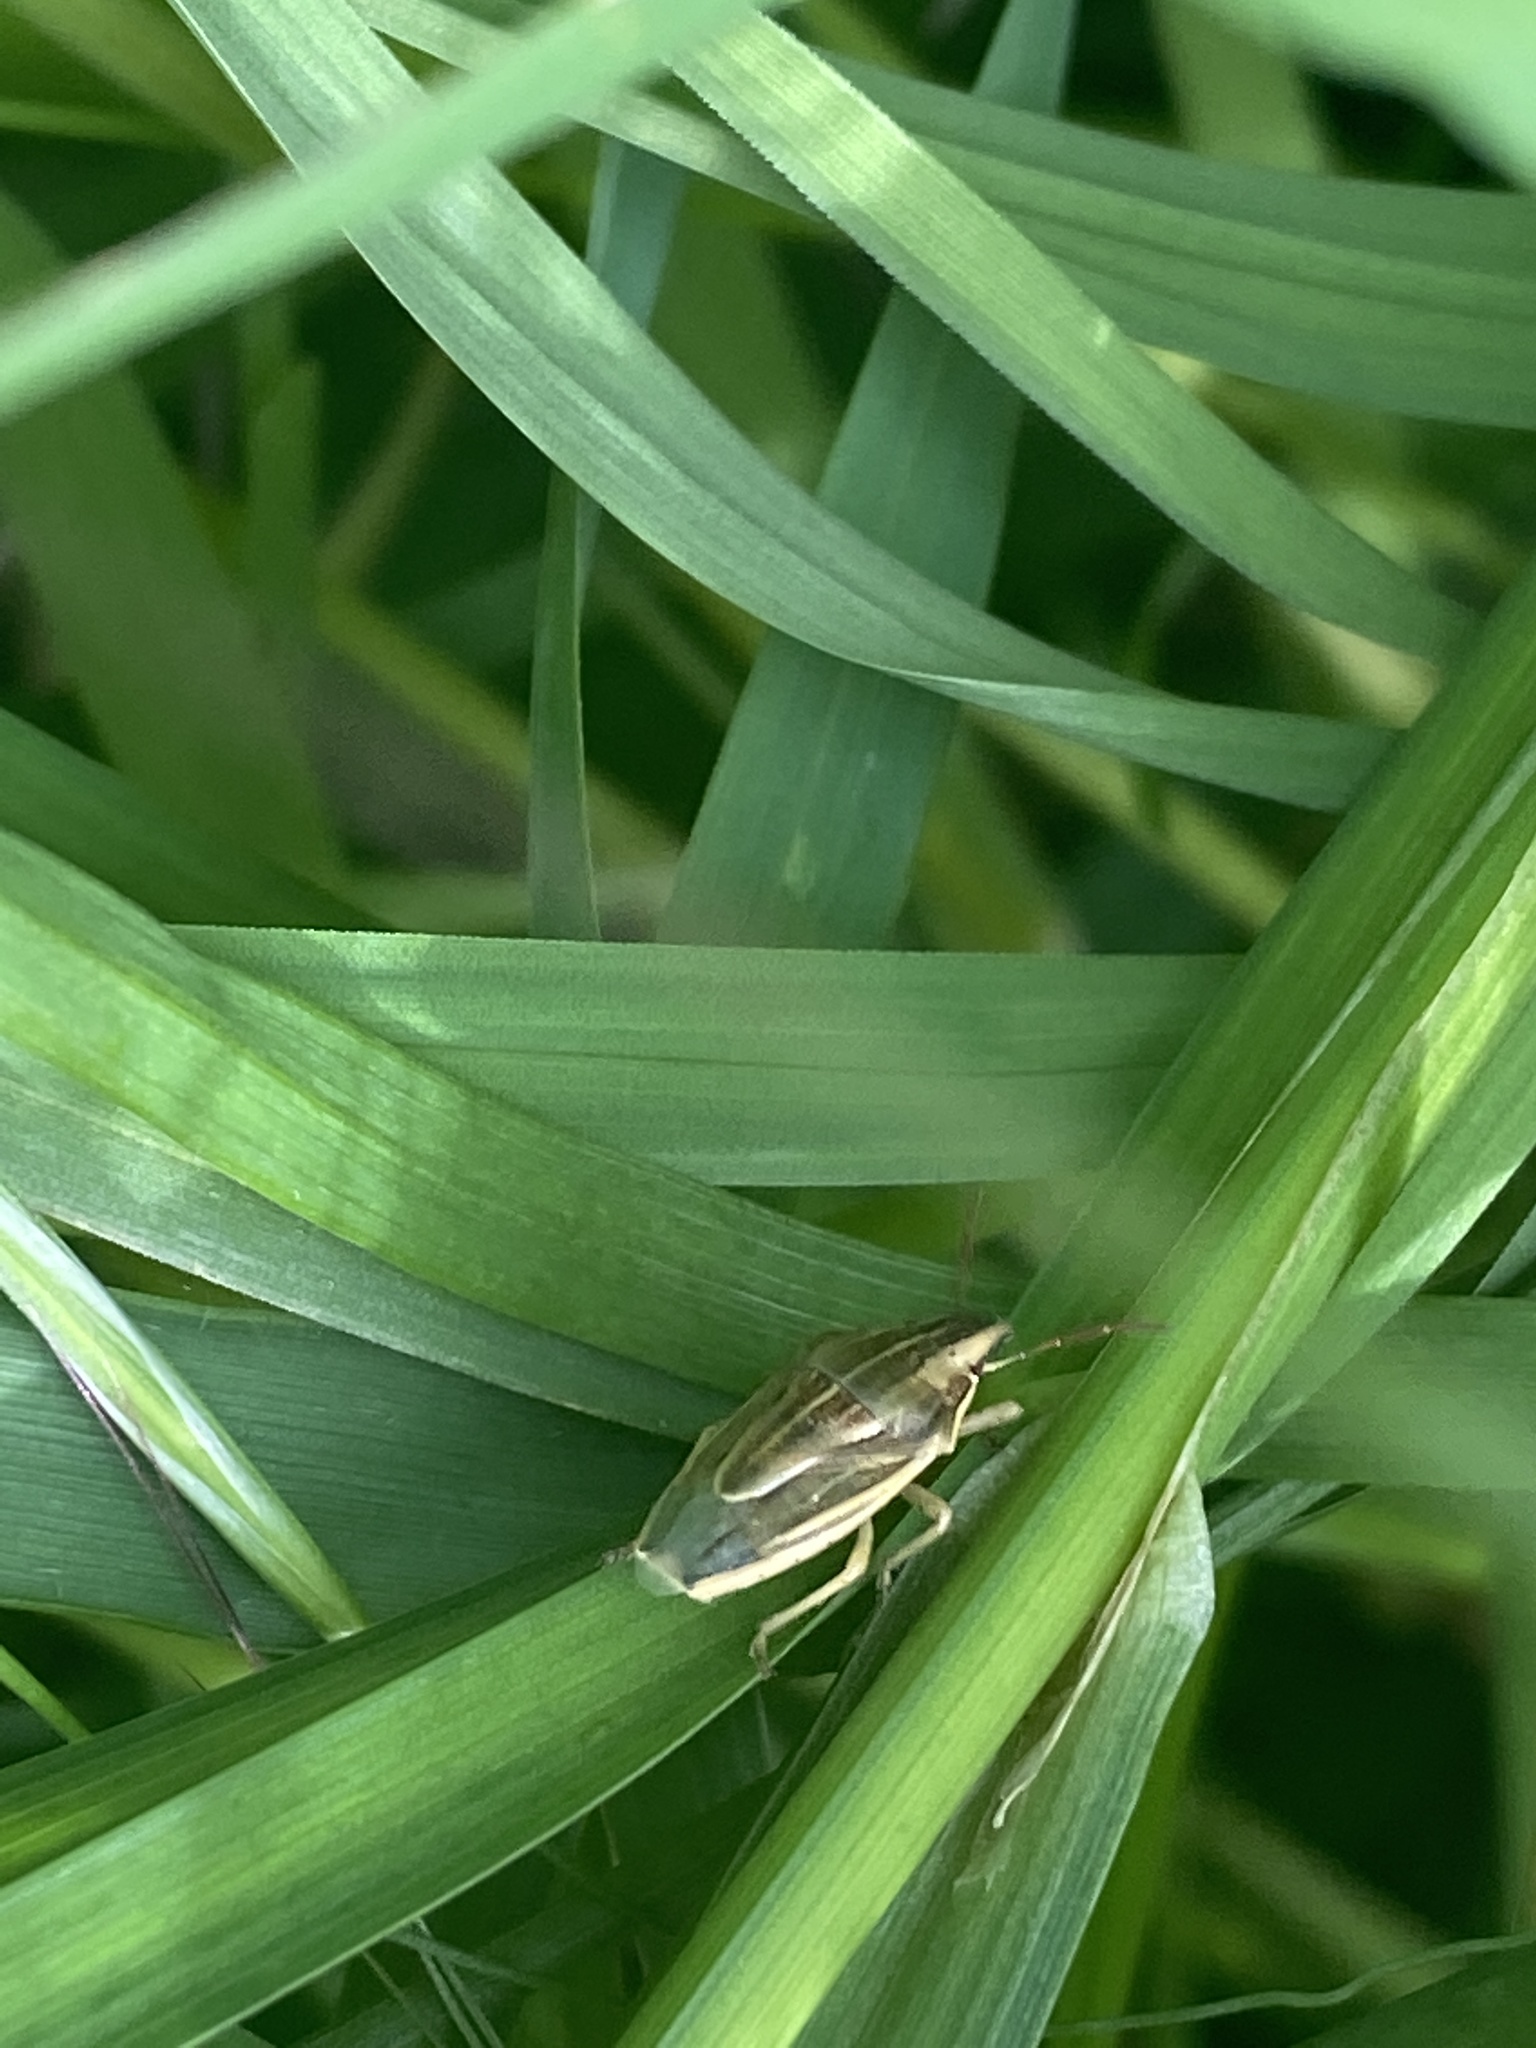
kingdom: Animalia
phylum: Arthropoda
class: Insecta
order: Hemiptera
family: Pentatomidae
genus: Aelia
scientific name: Aelia acuminata
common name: Bishop's mitre
